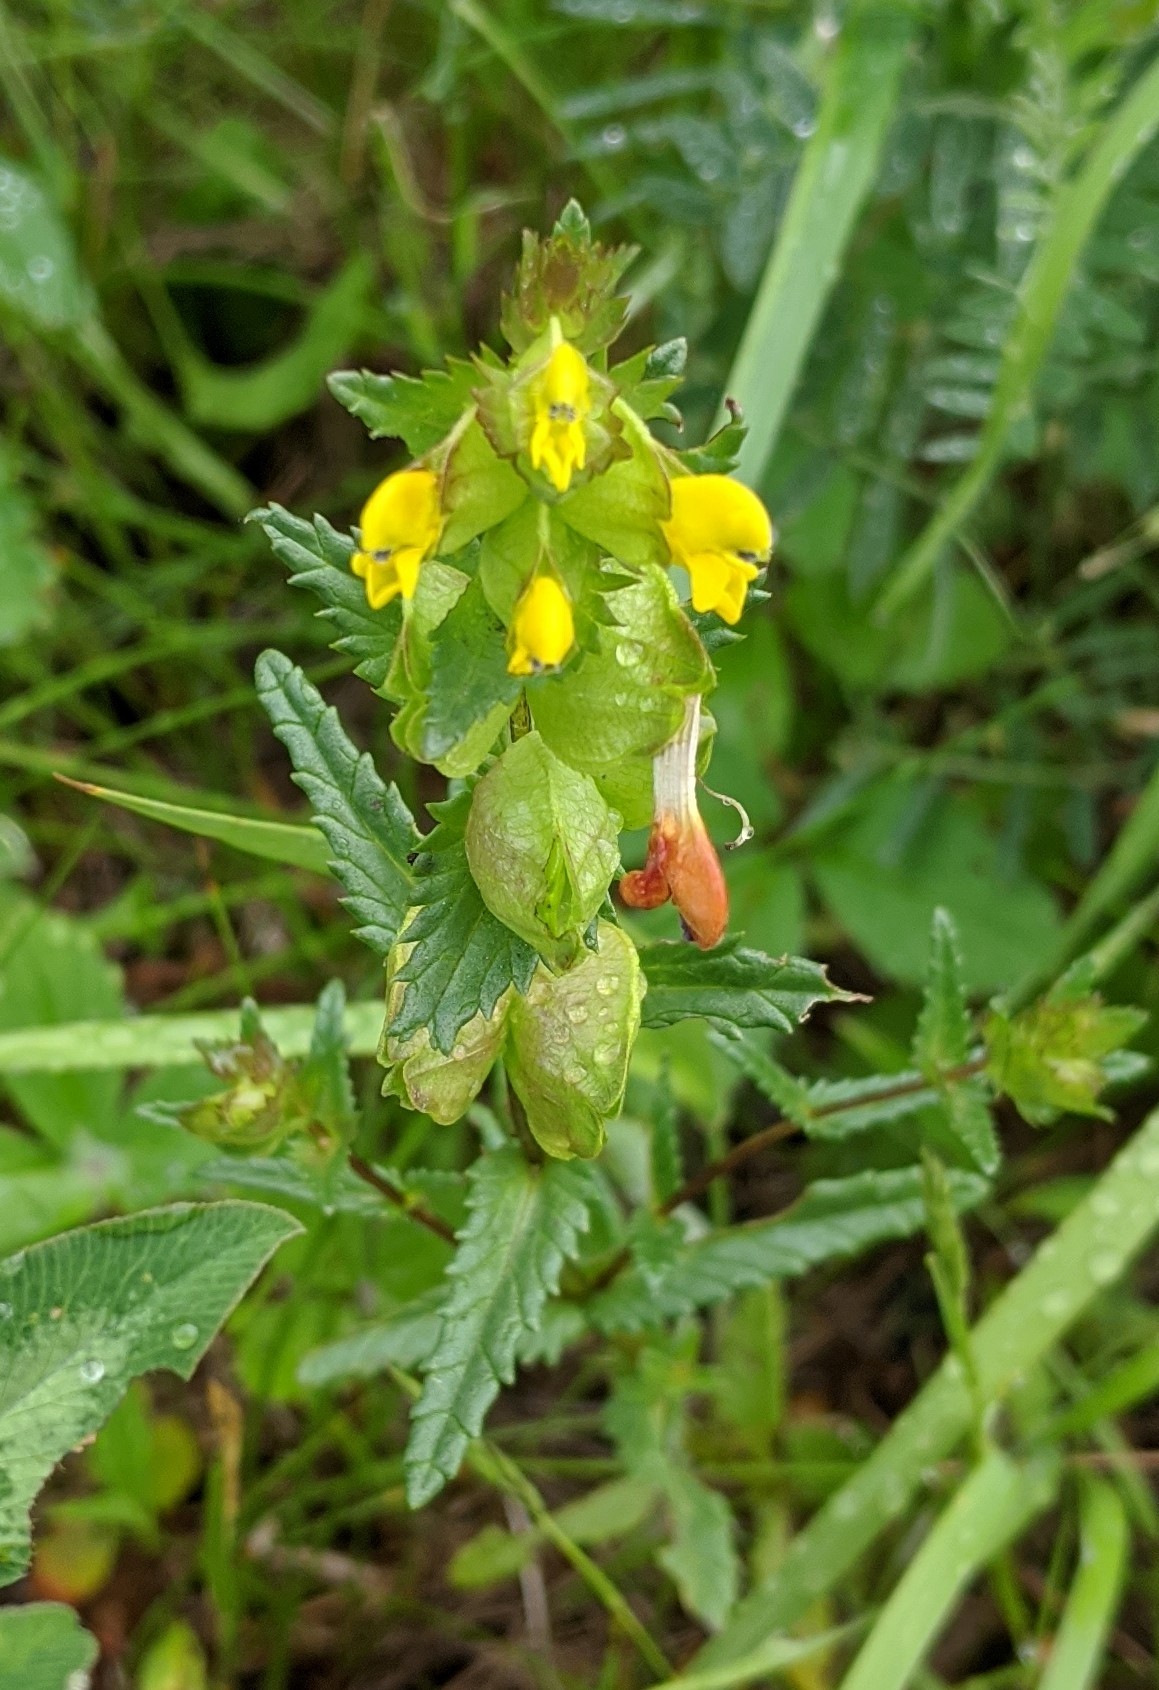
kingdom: Plantae
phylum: Tracheophyta
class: Magnoliopsida
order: Lamiales
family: Orobanchaceae
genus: Rhinanthus
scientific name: Rhinanthus minor
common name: Yellow-rattle
